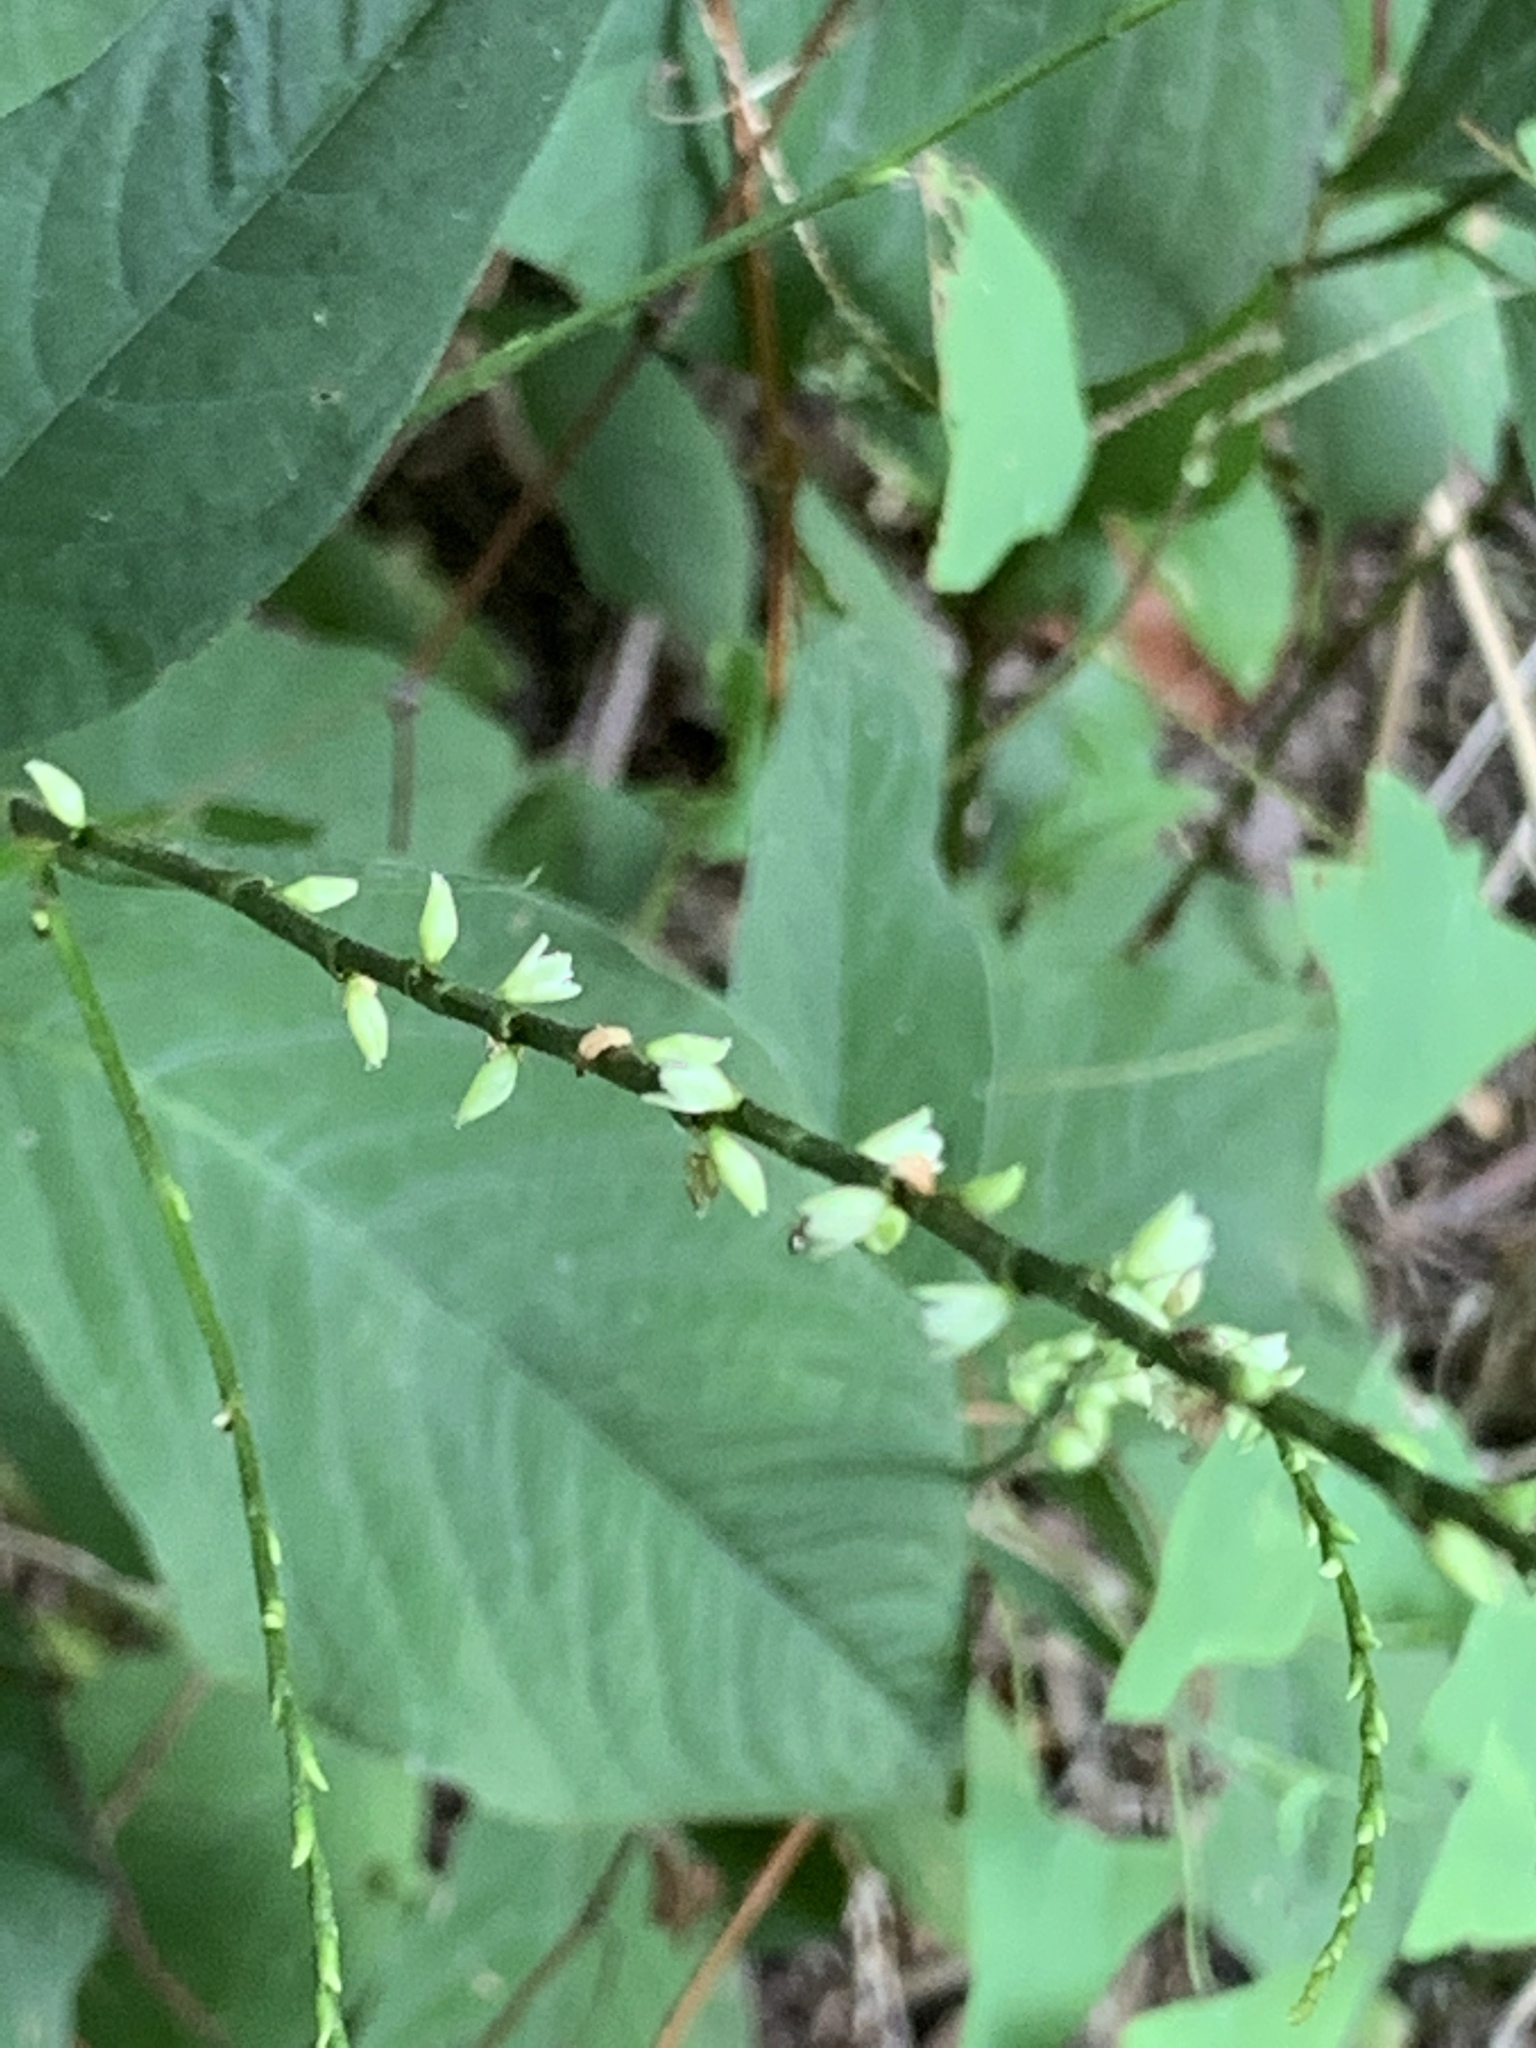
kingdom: Plantae
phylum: Tracheophyta
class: Magnoliopsida
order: Caryophyllales
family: Polygonaceae
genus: Persicaria
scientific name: Persicaria virginiana
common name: Jumpseed
